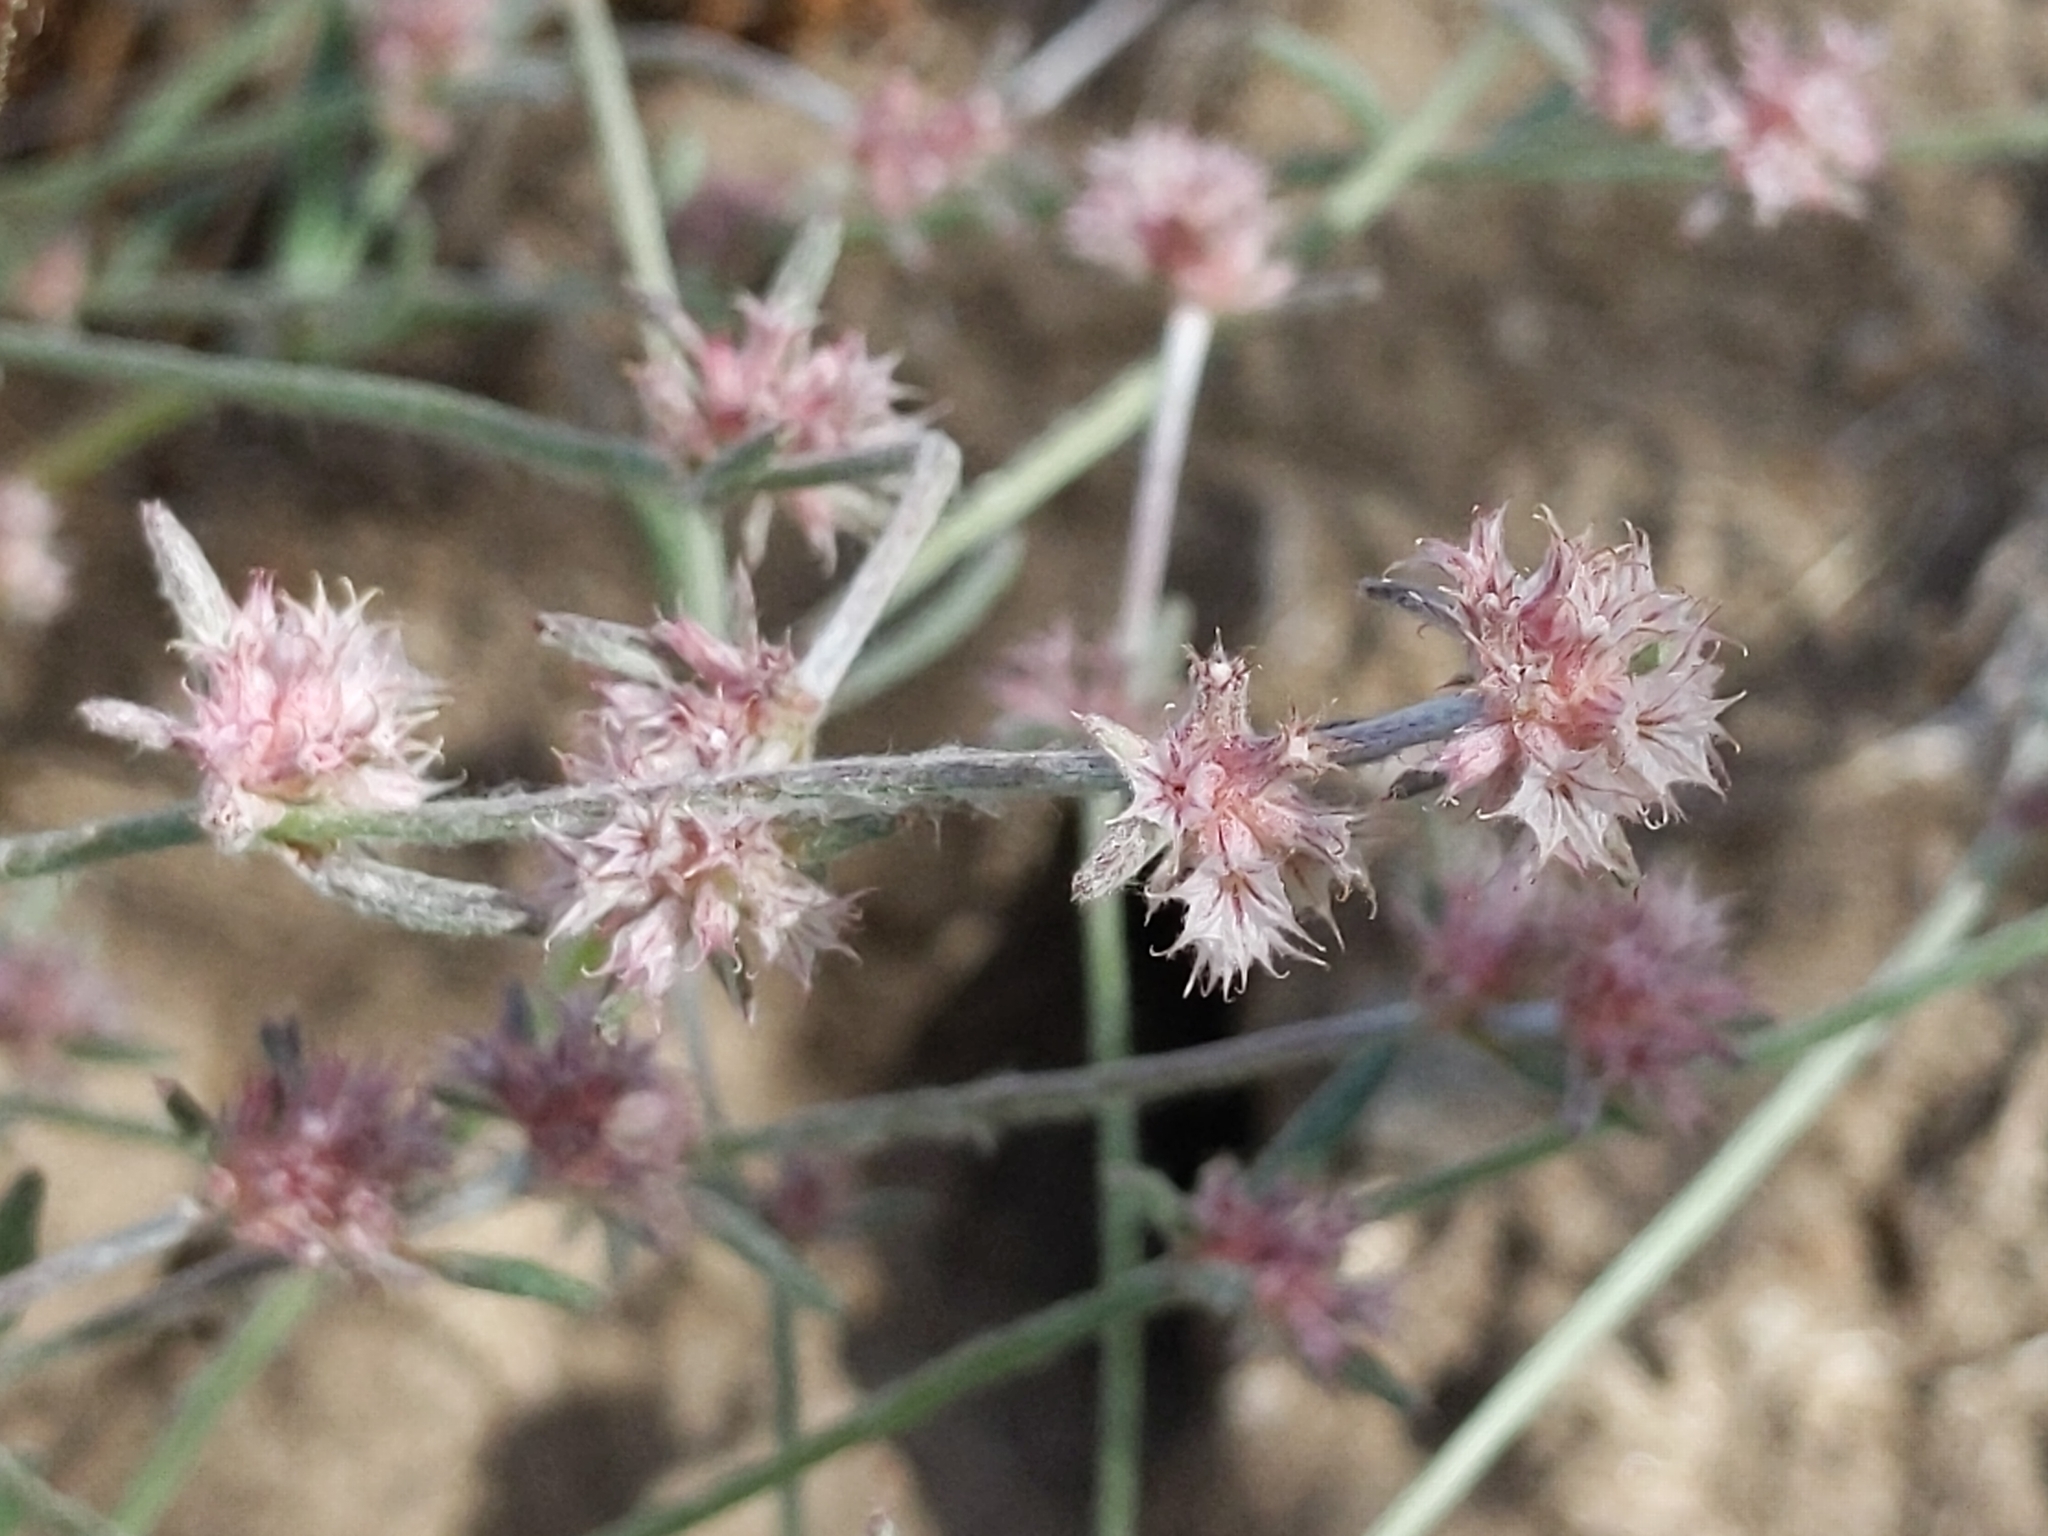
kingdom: Plantae
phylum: Tracheophyta
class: Magnoliopsida
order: Caryophyllales
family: Polygonaceae
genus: Chorizanthe
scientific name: Chorizanthe membranacea
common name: Pink spineflower
